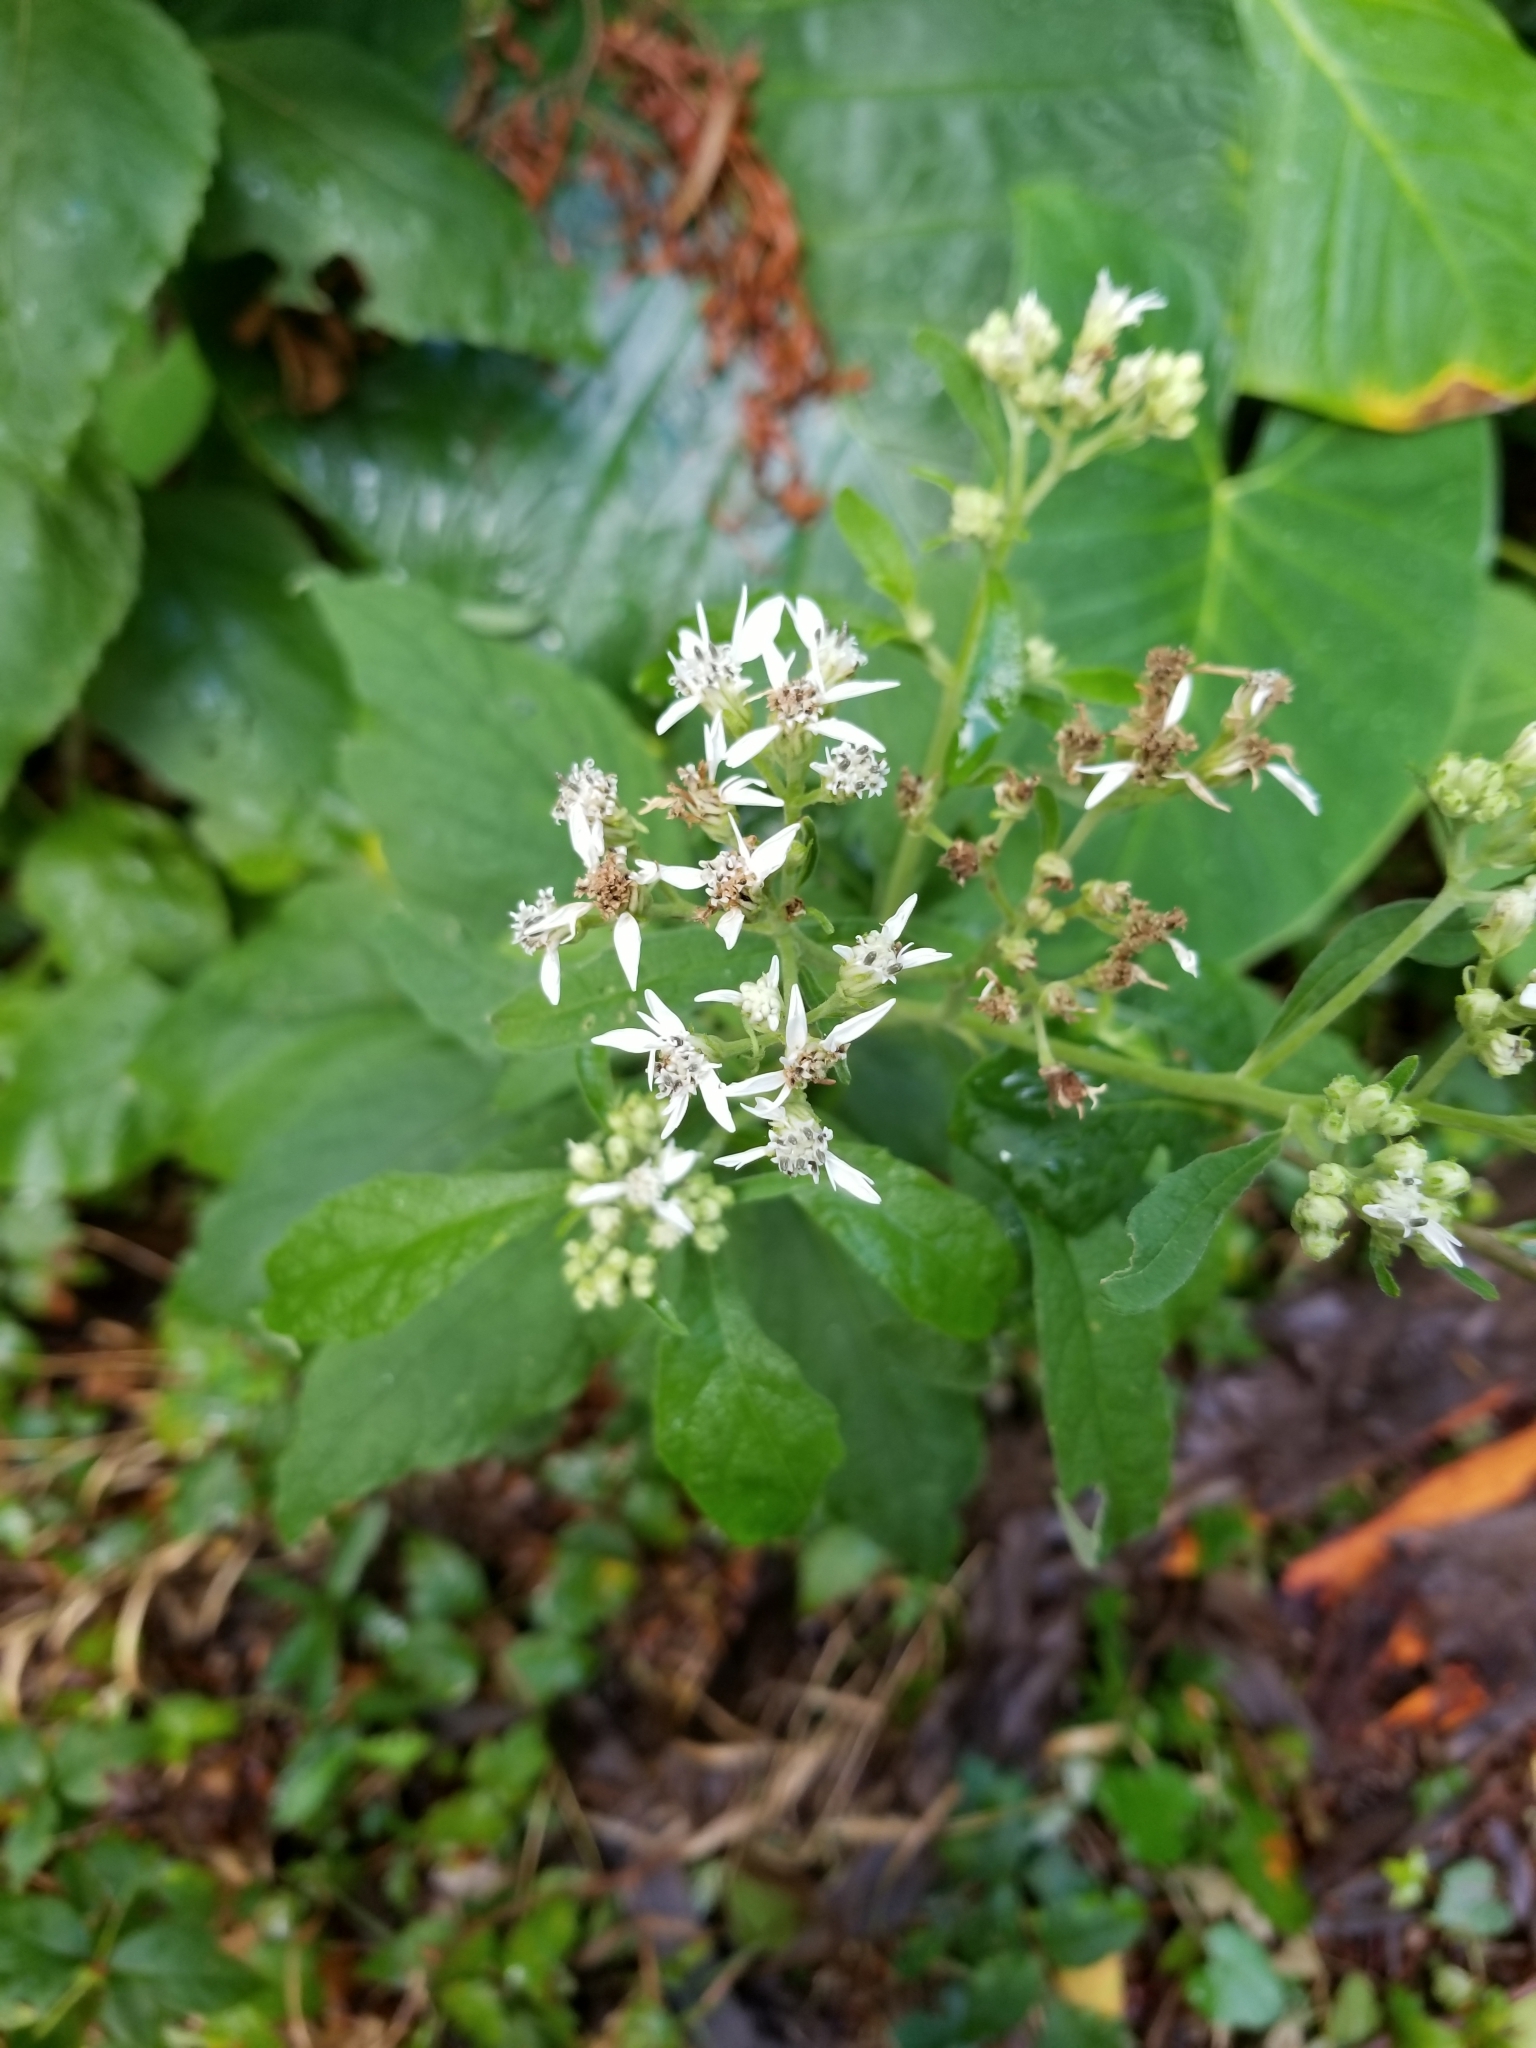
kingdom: Plantae
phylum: Tracheophyta
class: Magnoliopsida
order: Asterales
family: Asteraceae
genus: Verbesina
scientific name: Verbesina virginica
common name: Frostweed
